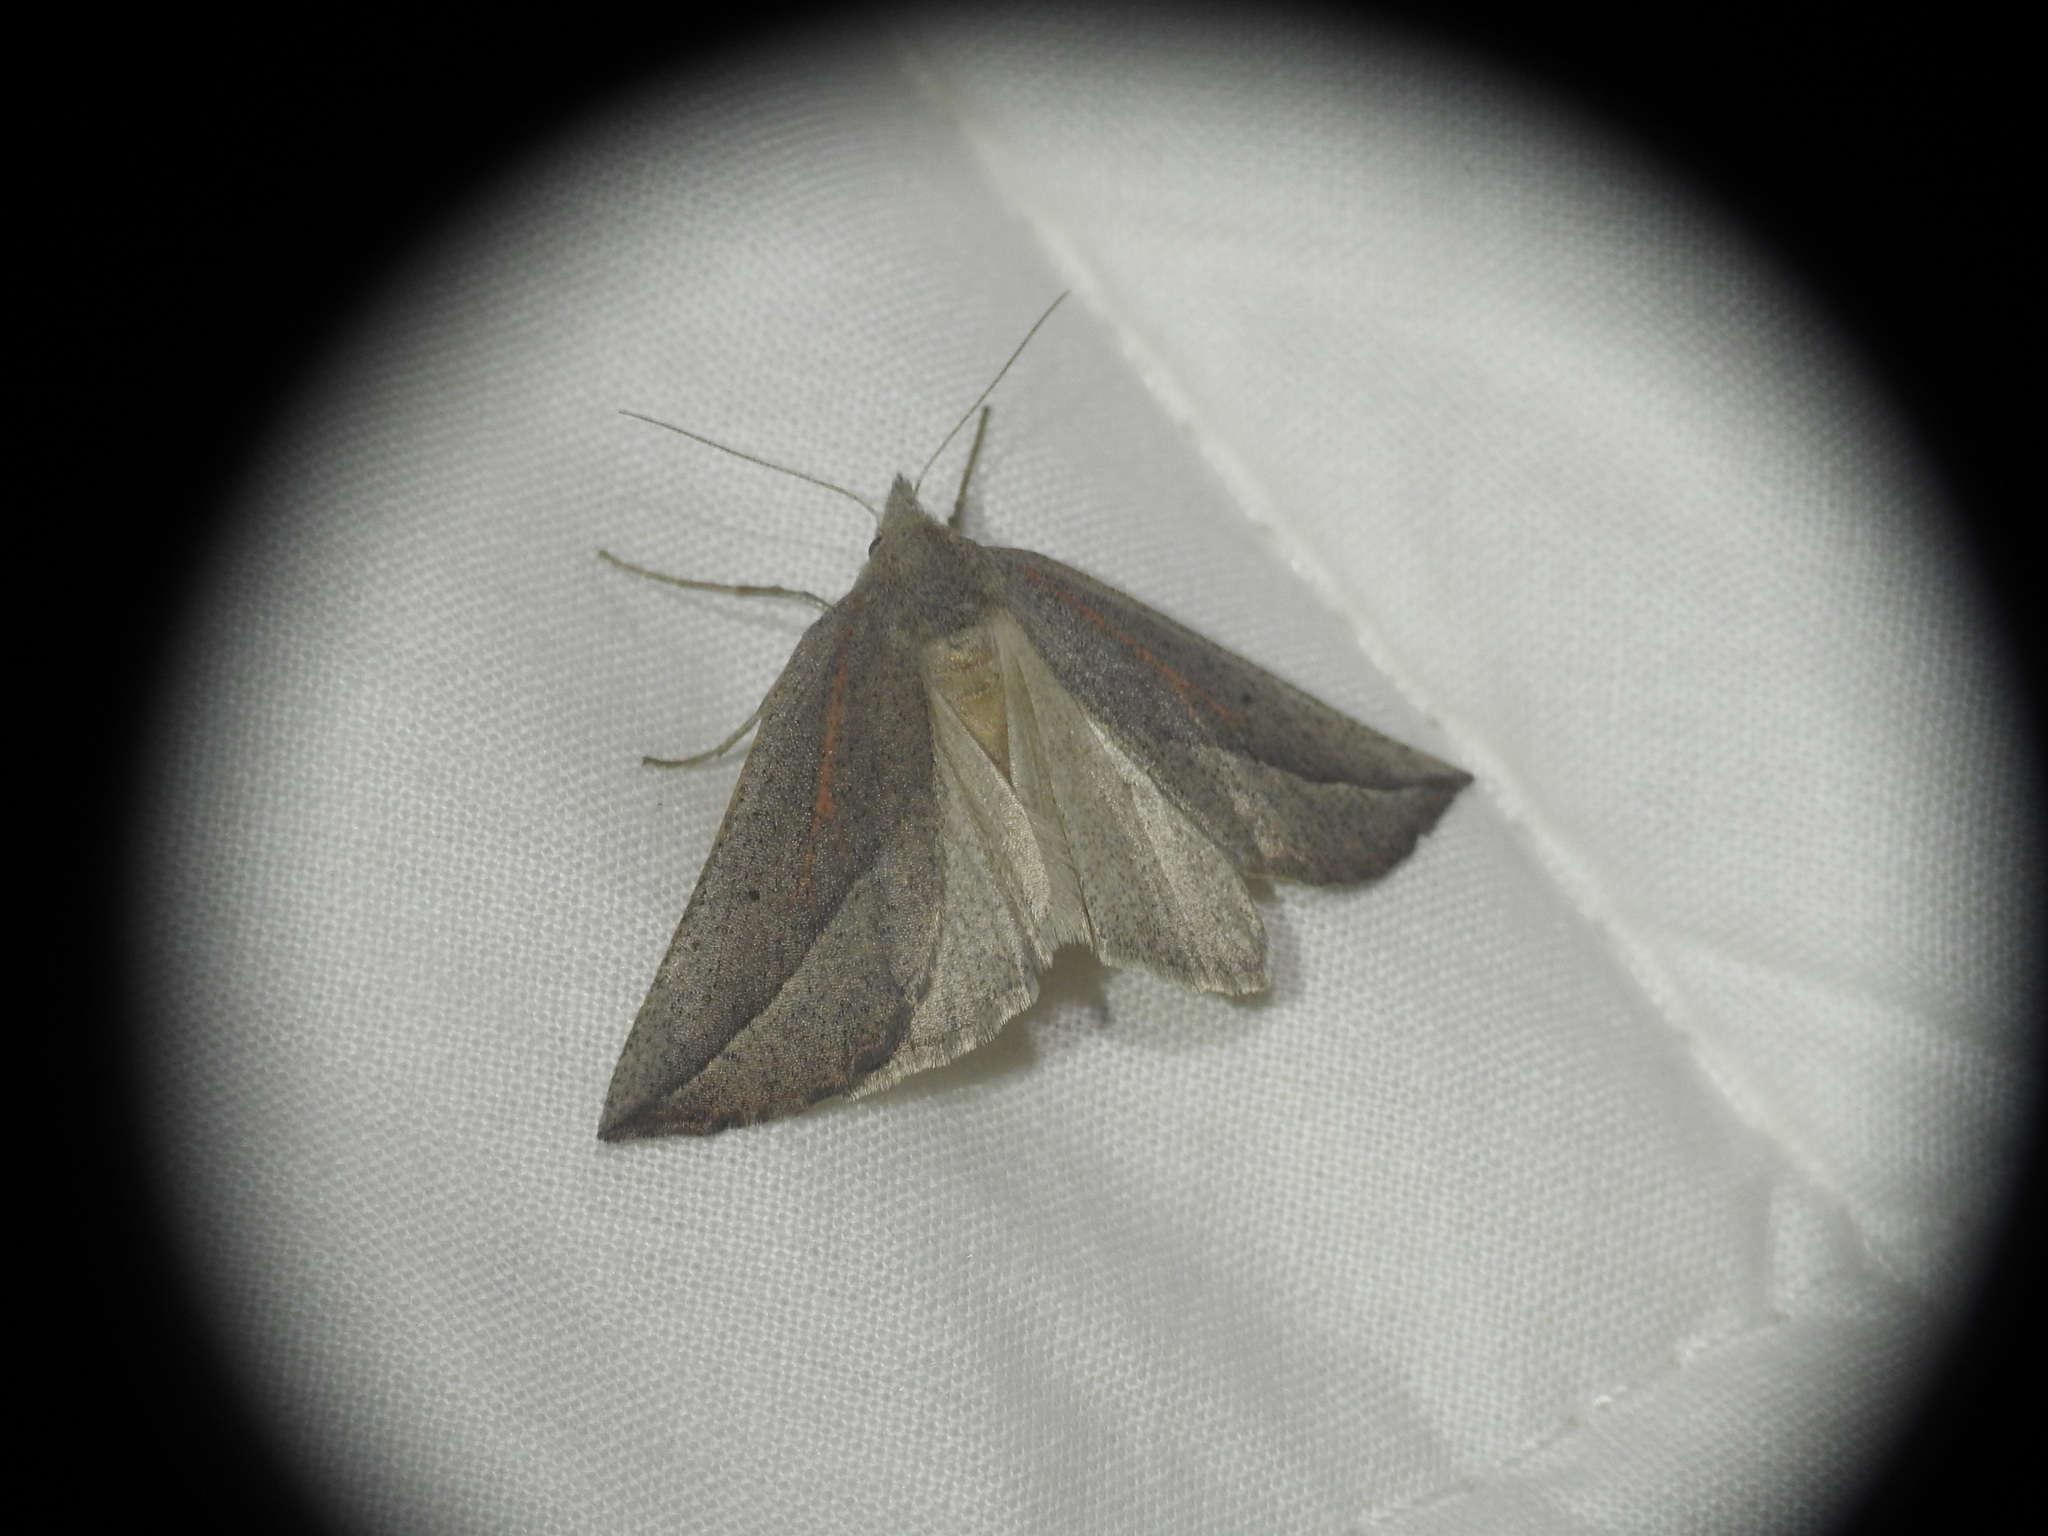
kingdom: Animalia
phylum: Arthropoda
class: Insecta
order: Lepidoptera
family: Geometridae
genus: Compsoptera
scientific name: Compsoptera opacaria
